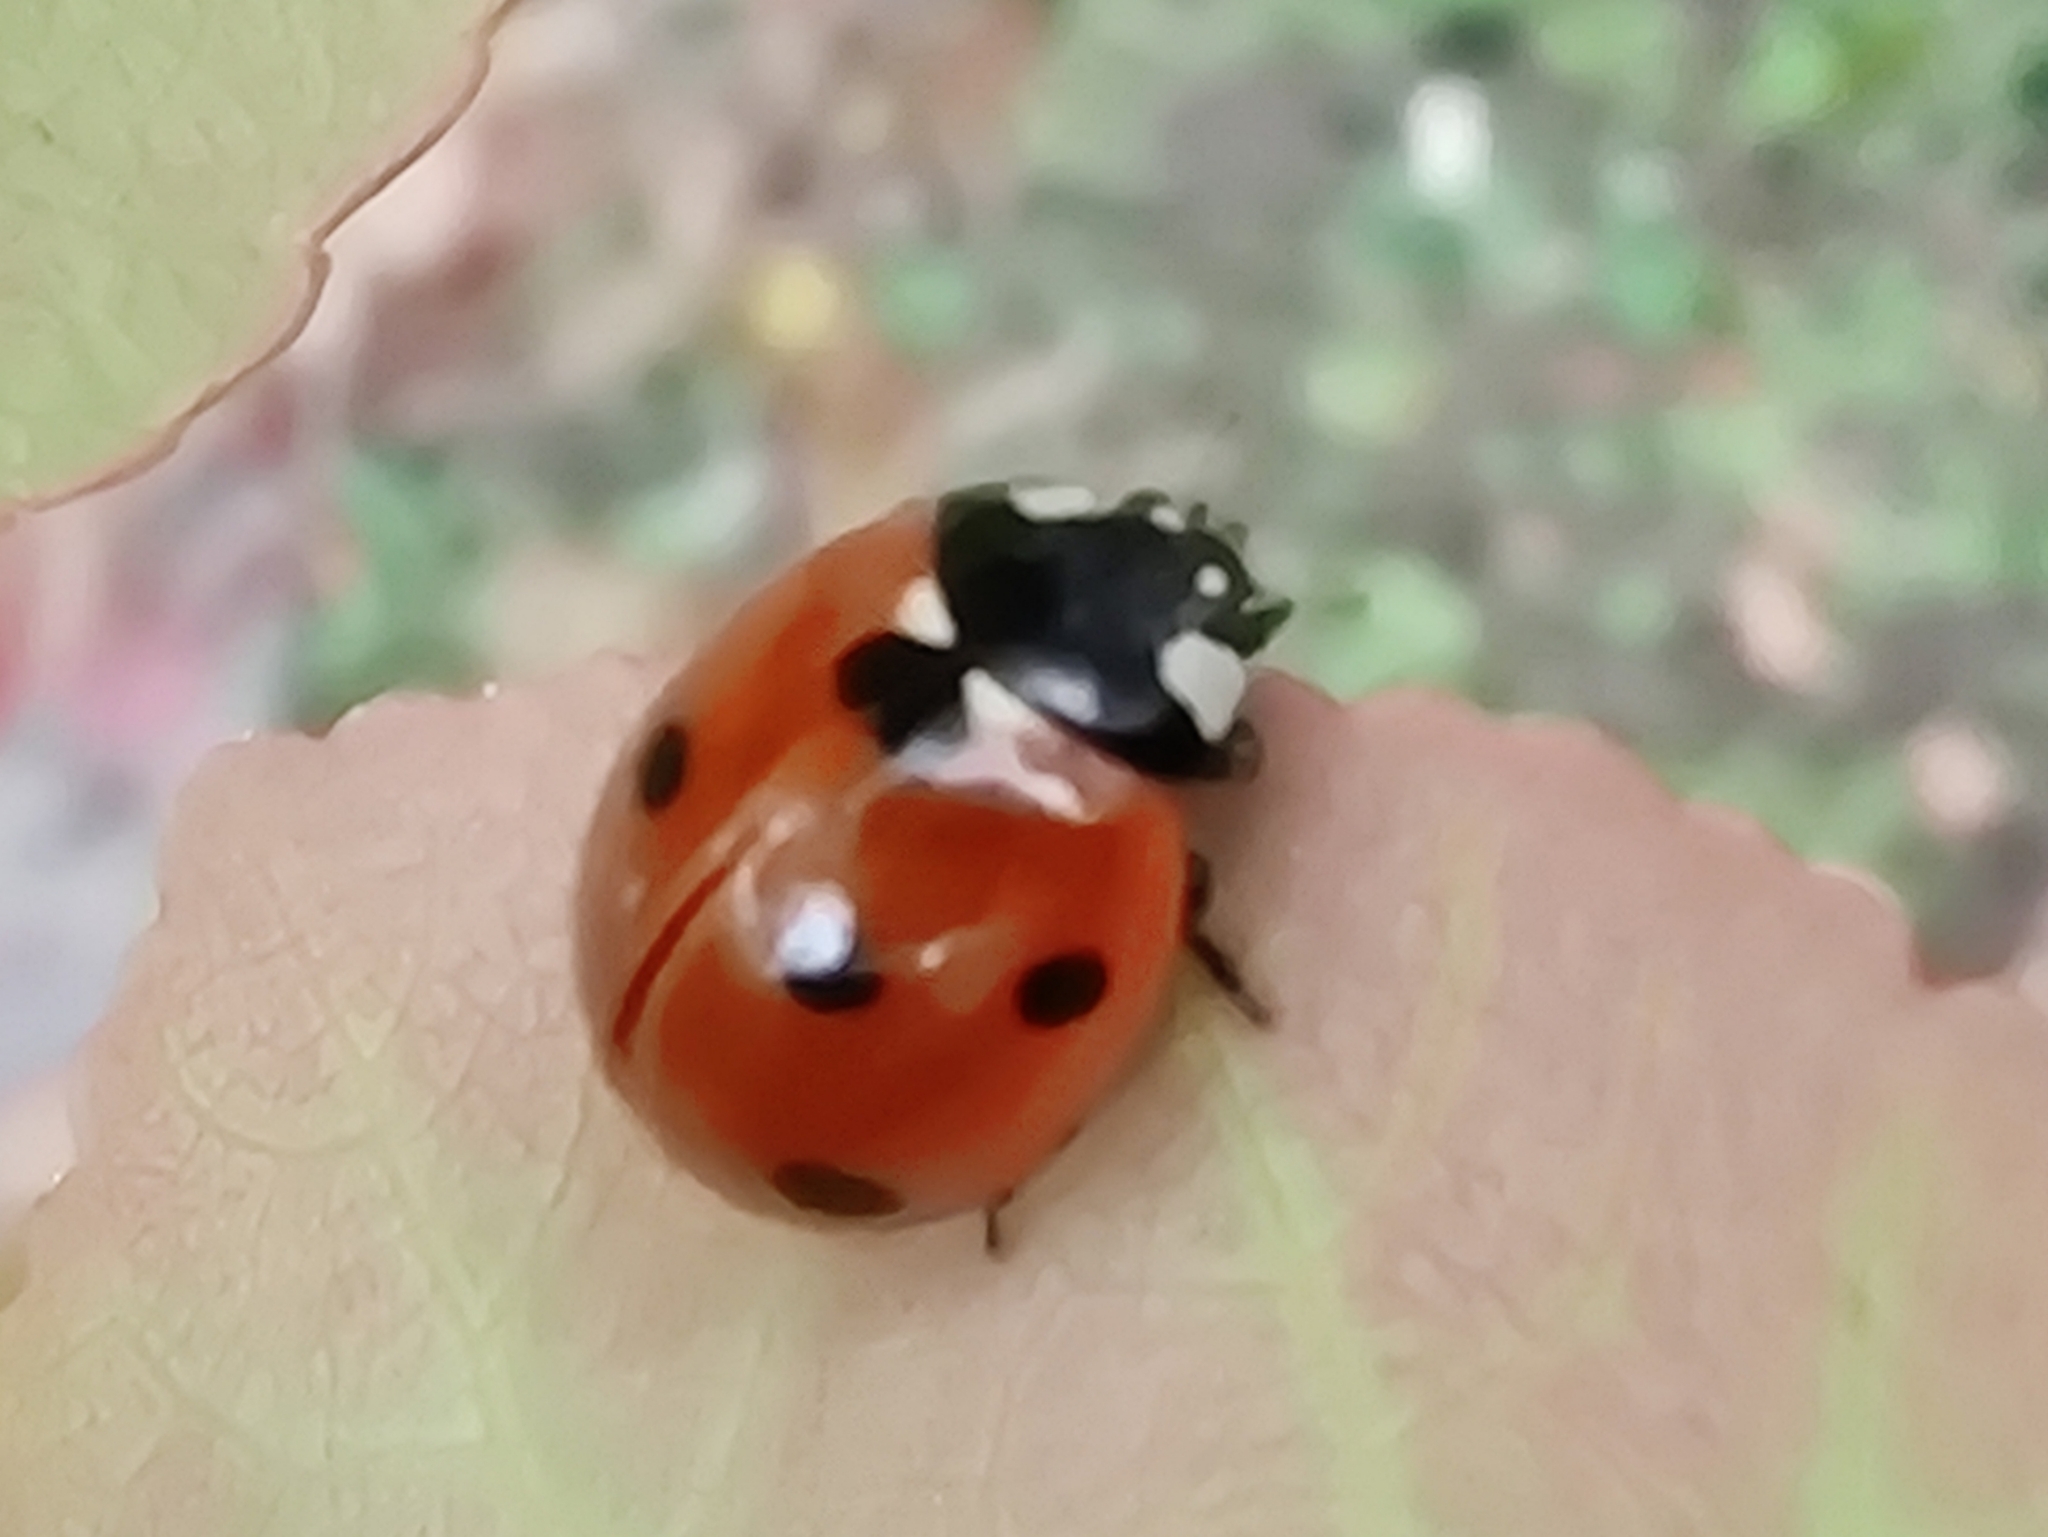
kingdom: Animalia
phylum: Arthropoda
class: Insecta
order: Coleoptera
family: Coccinellidae
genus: Coccinella
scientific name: Coccinella septempunctata
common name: Sevenspotted lady beetle
